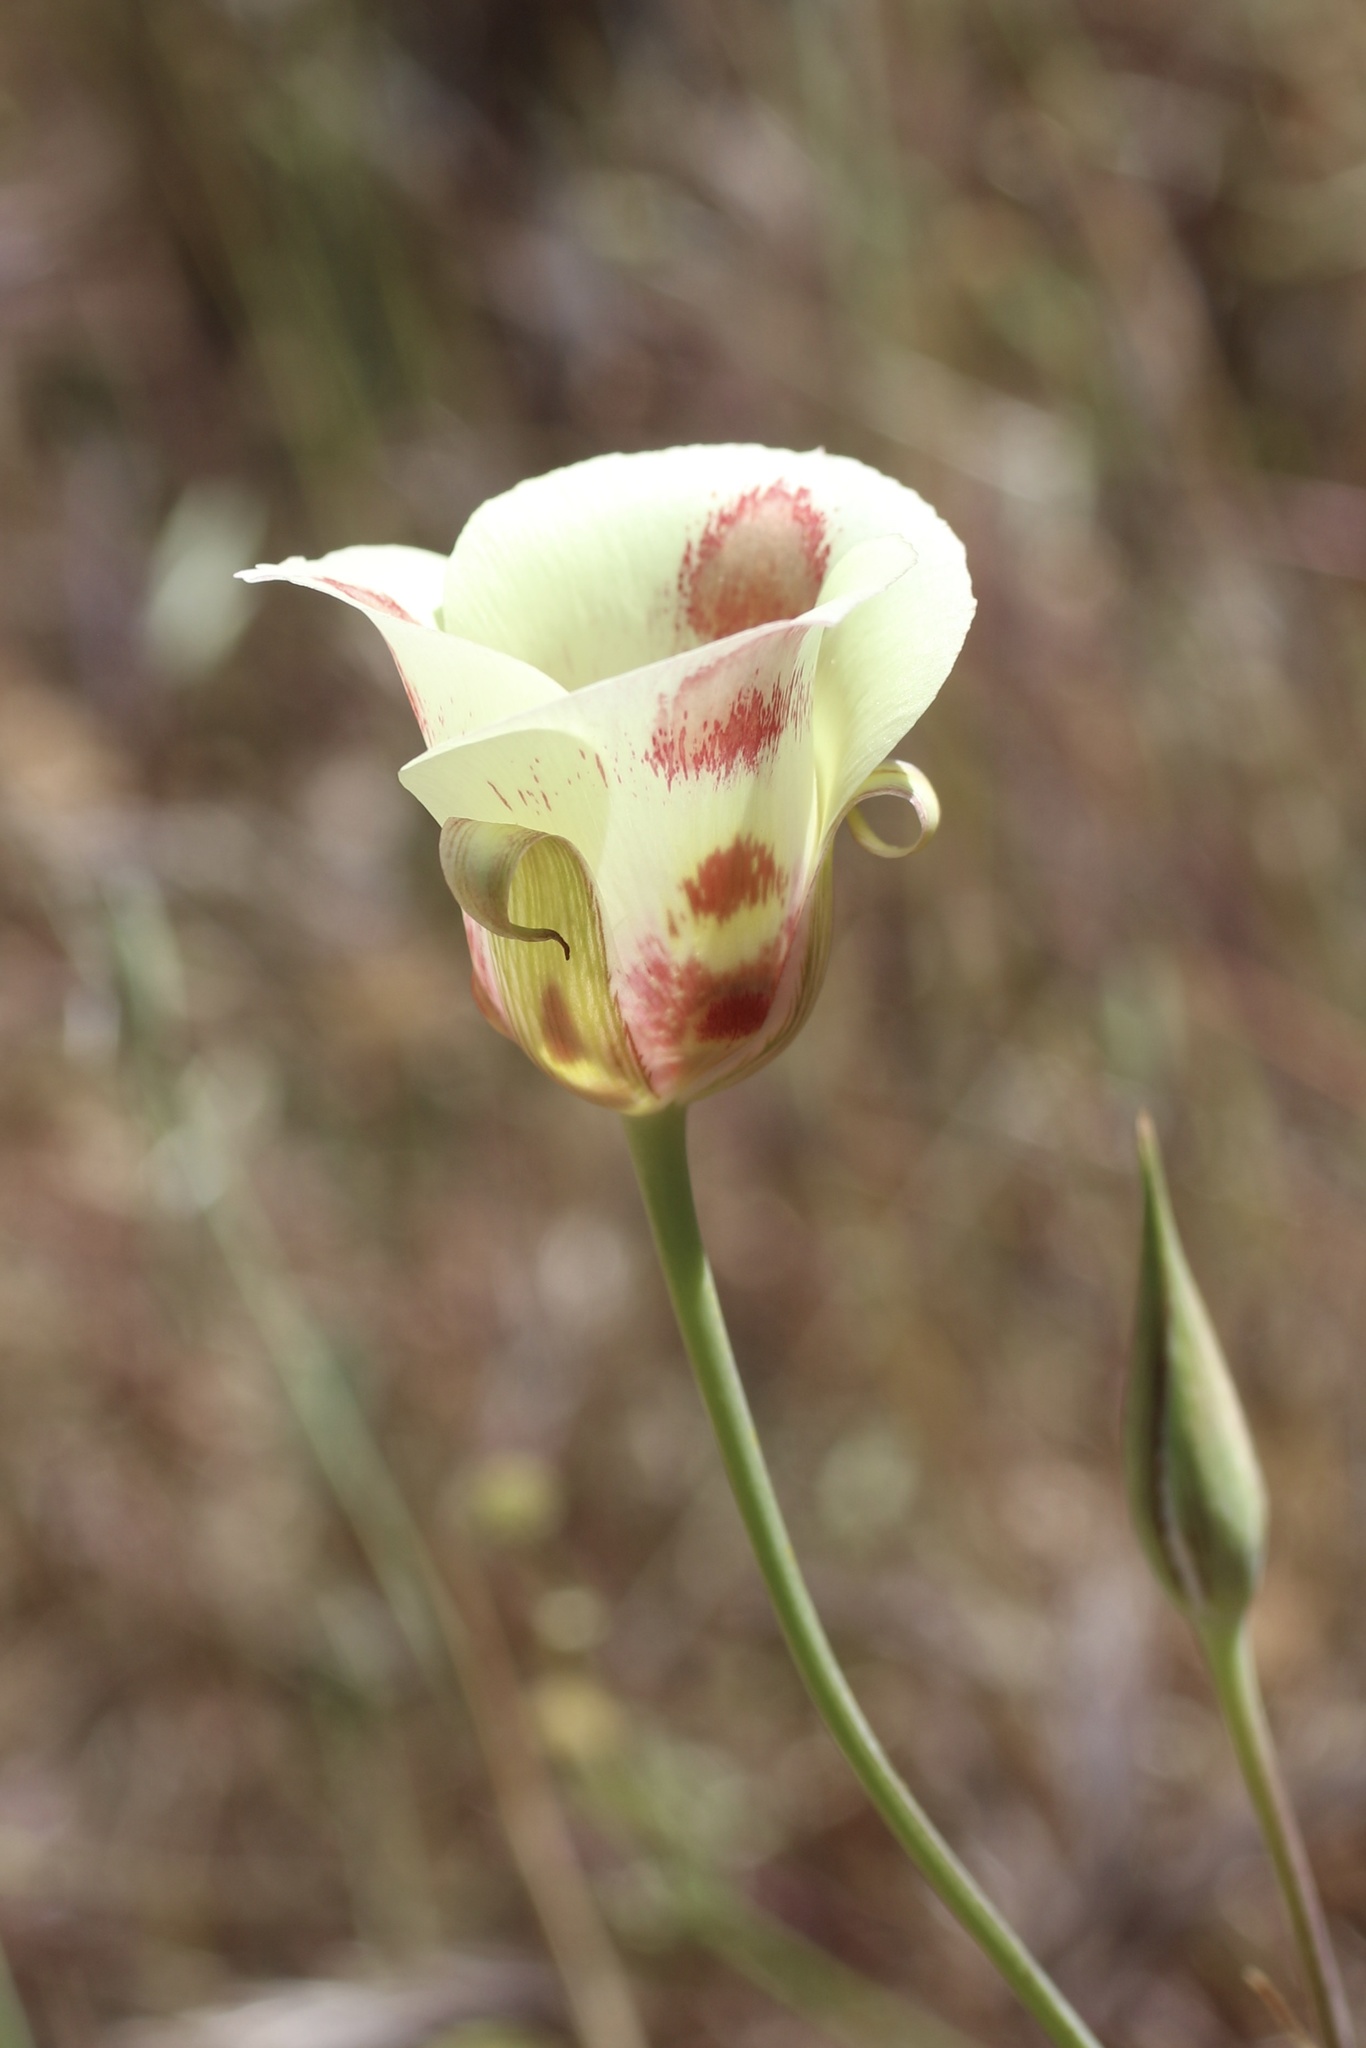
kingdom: Plantae
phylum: Tracheophyta
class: Liliopsida
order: Liliales
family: Liliaceae
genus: Calochortus
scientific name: Calochortus venustus
